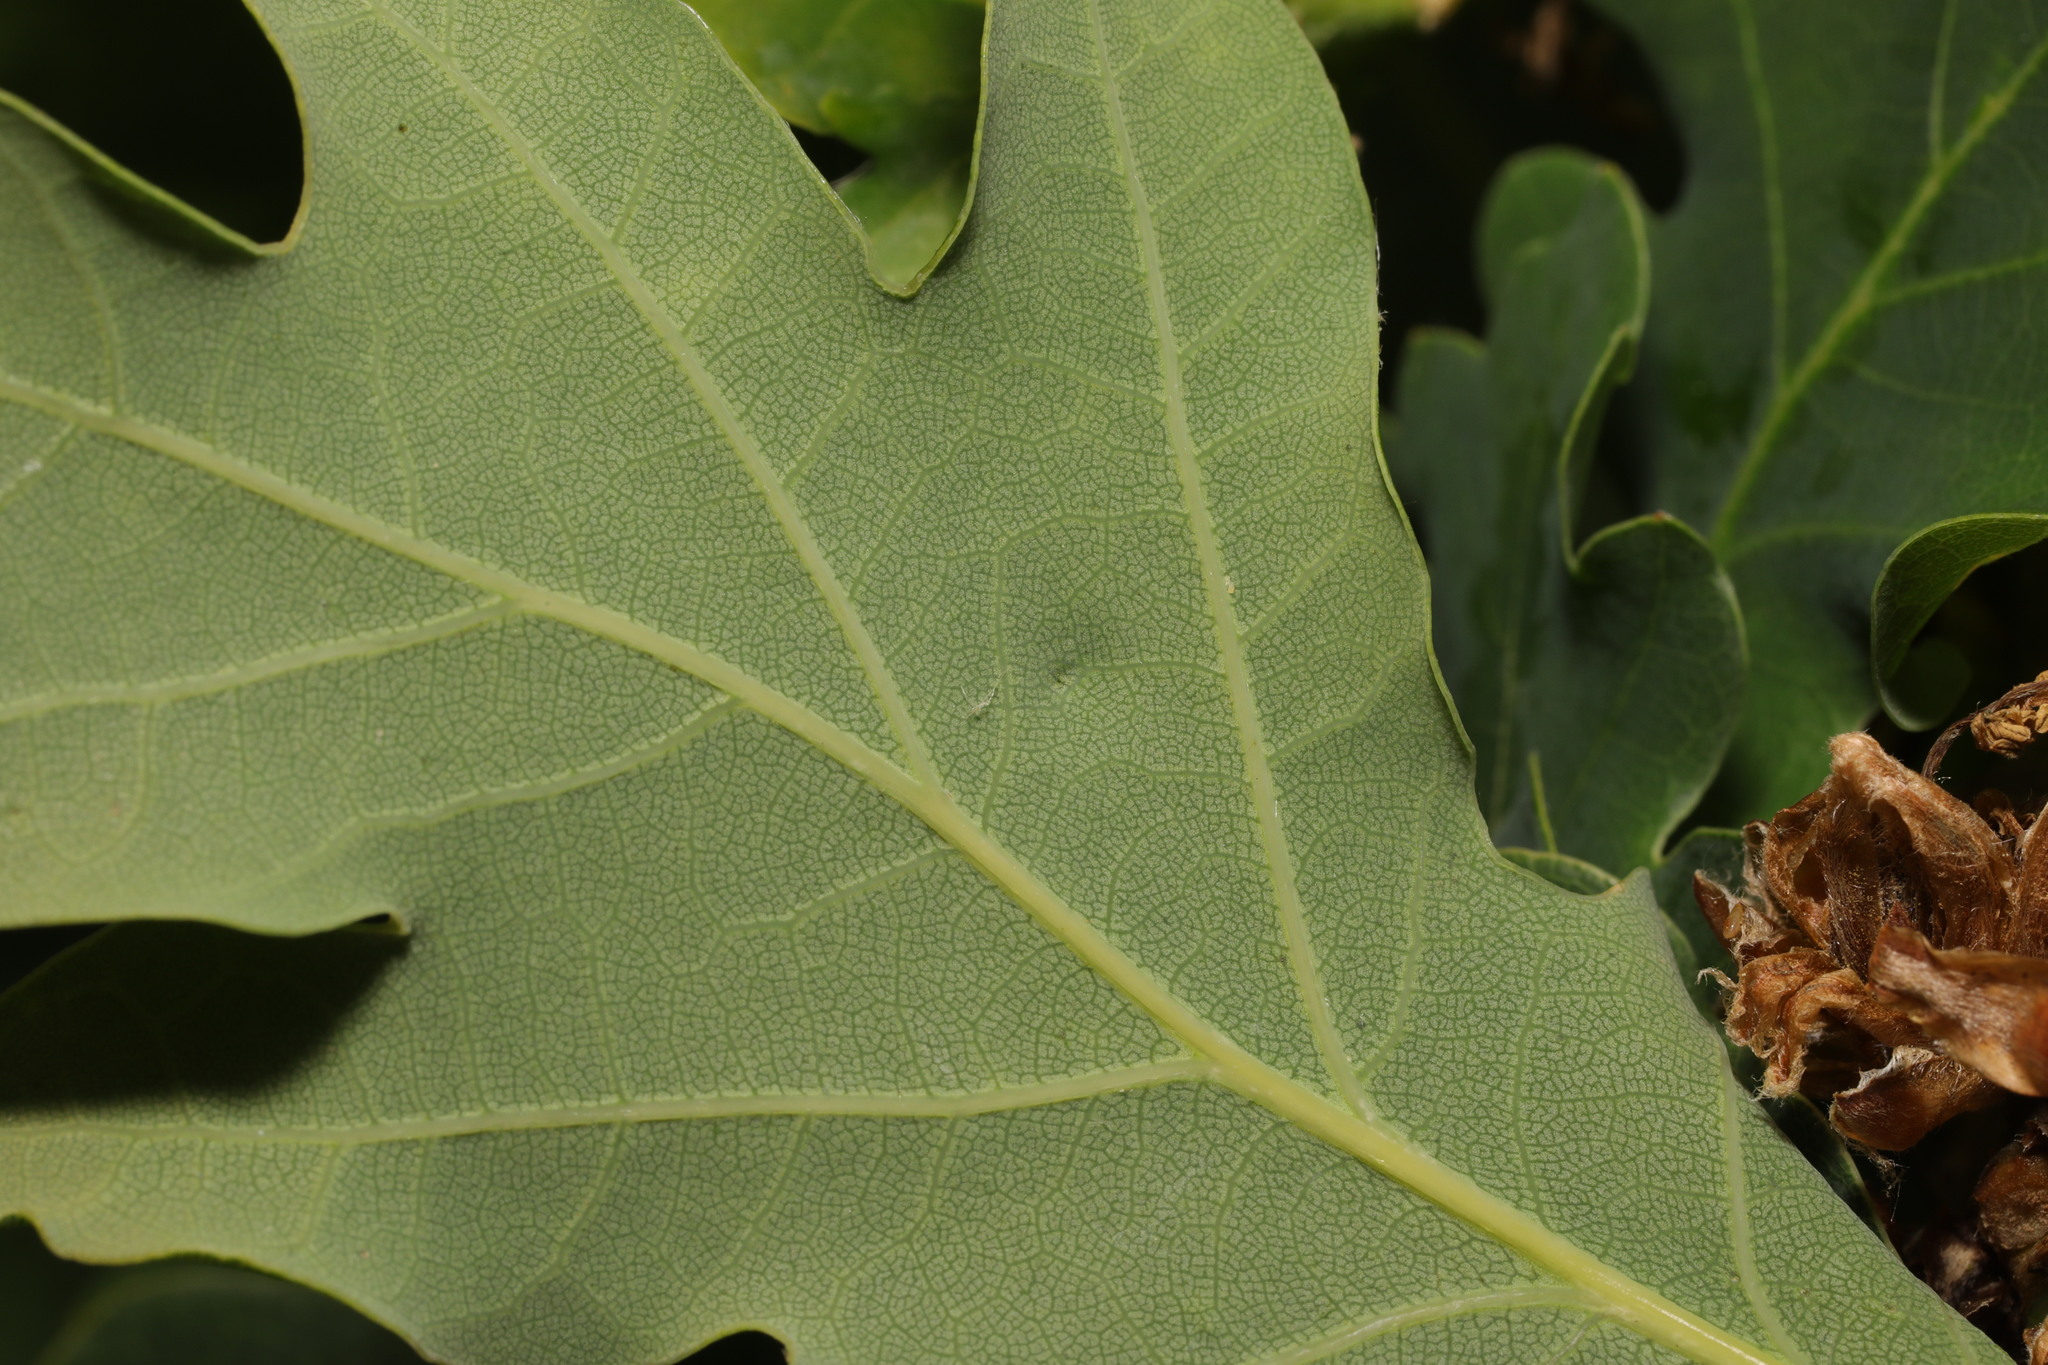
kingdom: Animalia
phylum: Arthropoda
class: Insecta
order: Hemiptera
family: Triozidae
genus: Trioza
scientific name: Trioza remota
